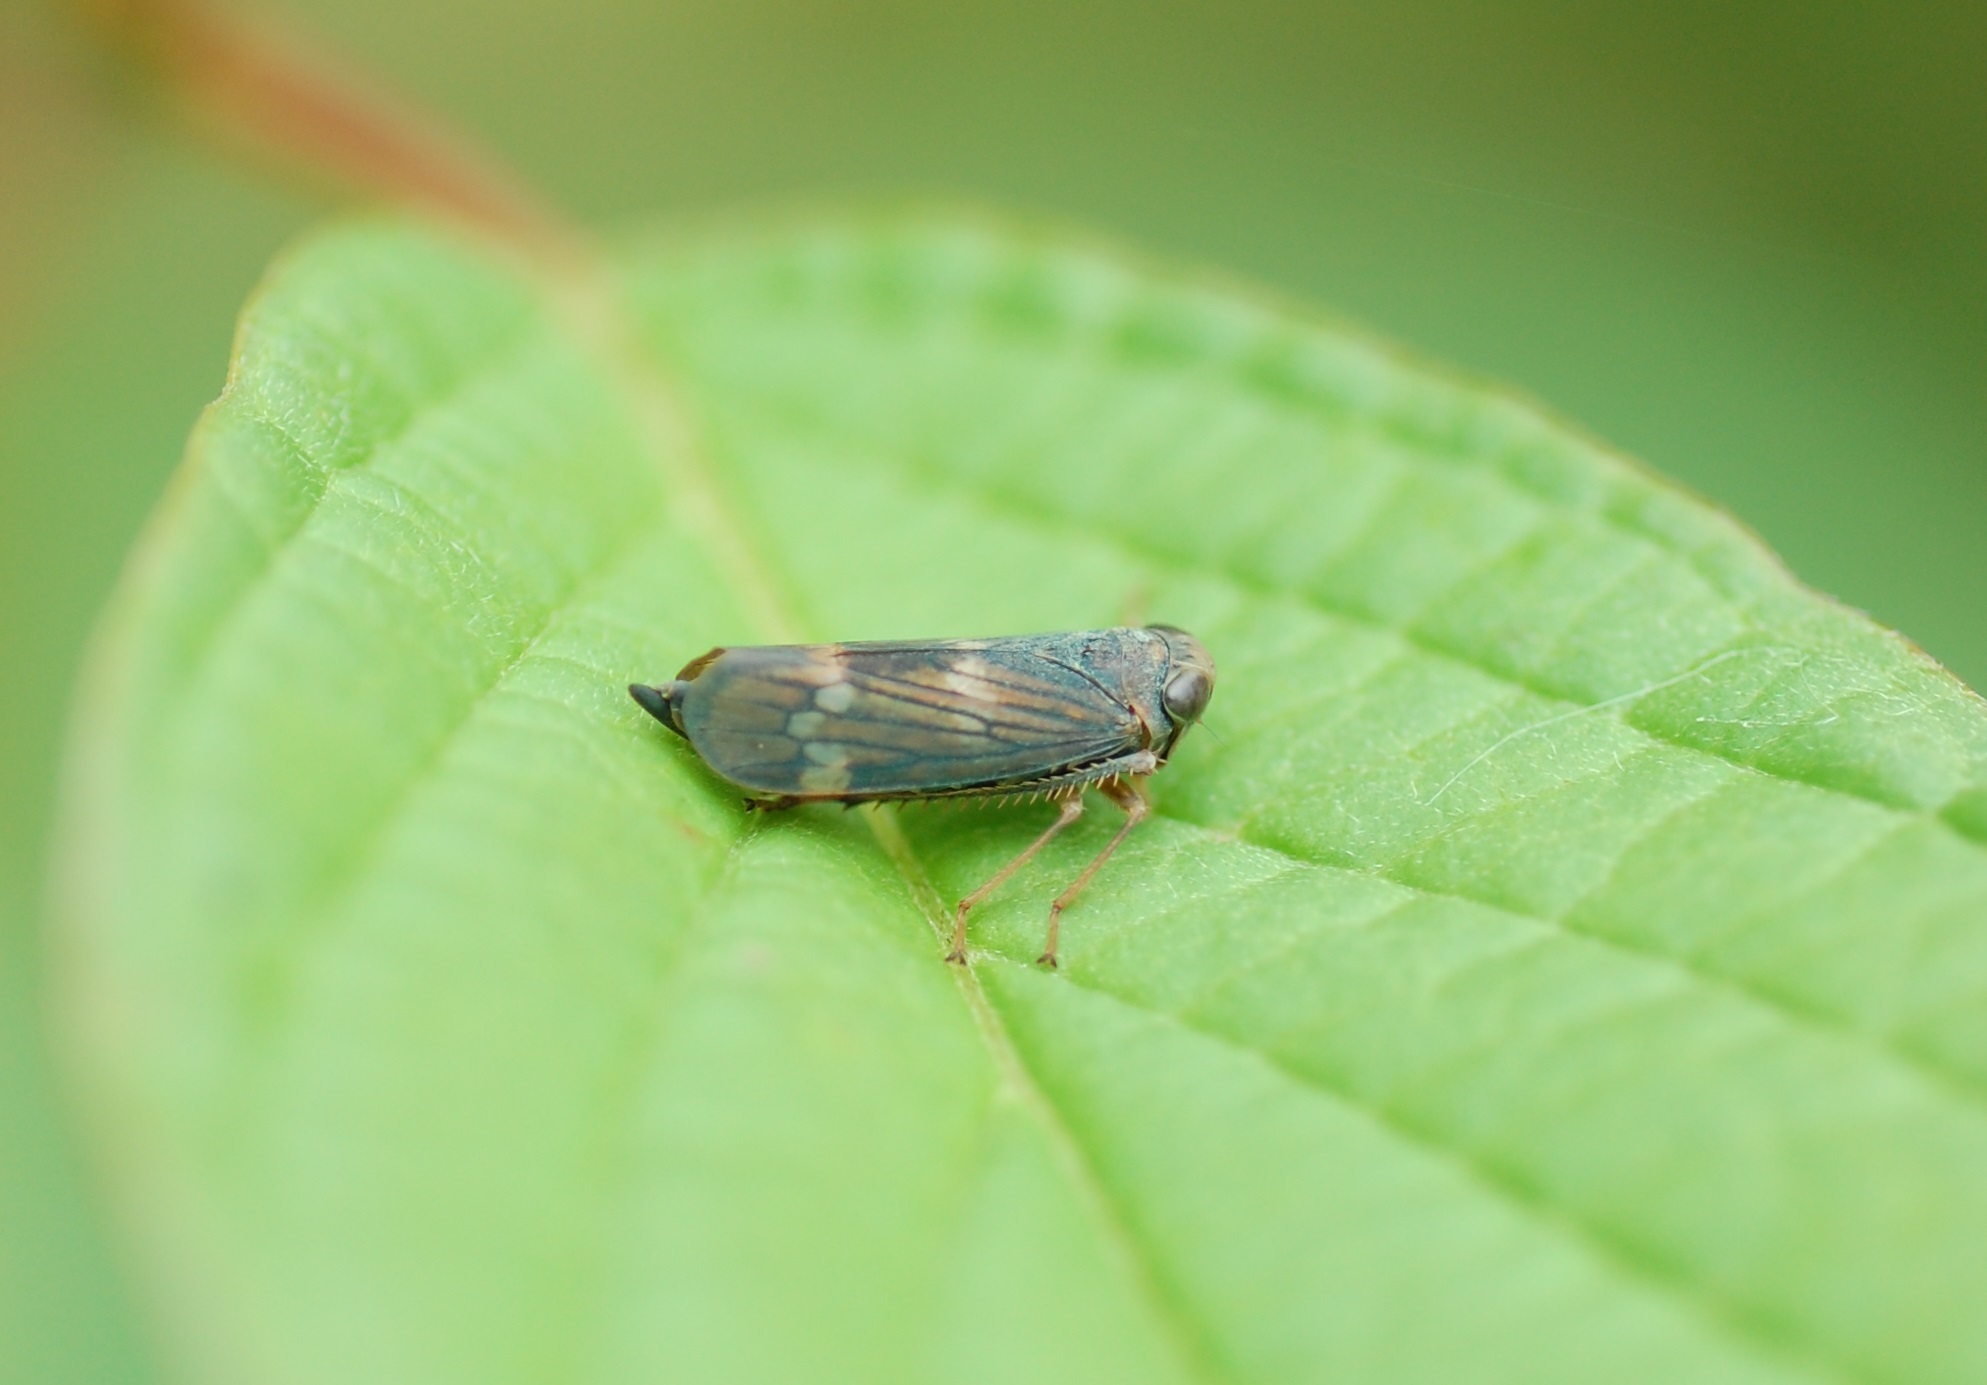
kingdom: Animalia
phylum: Arthropoda
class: Insecta
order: Hemiptera
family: Cicadellidae
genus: Jikradia
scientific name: Jikradia olitoria
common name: Coppery leafhopper
